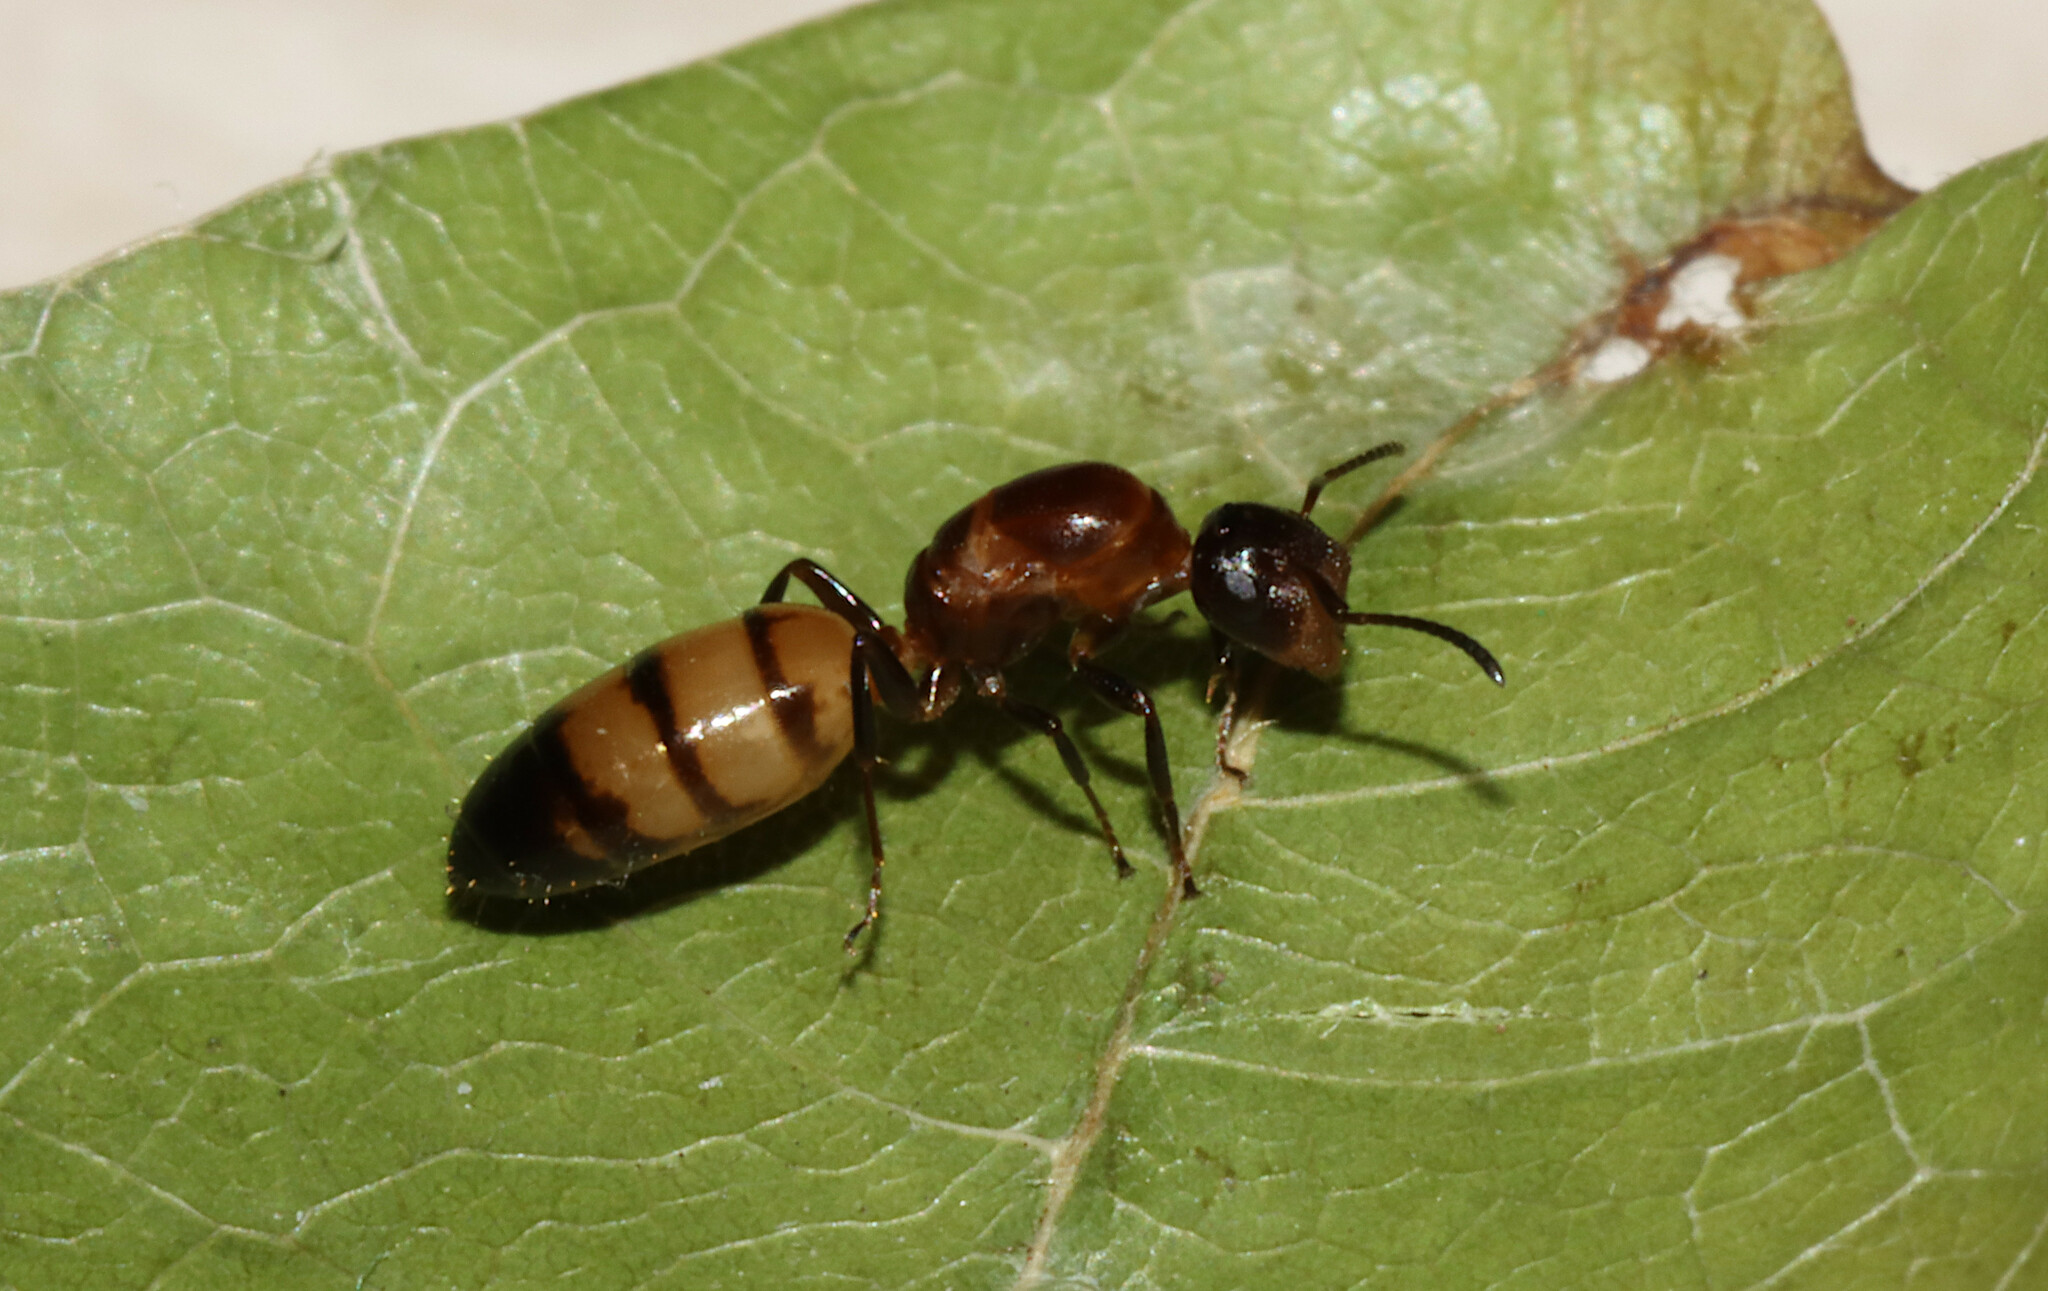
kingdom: Animalia
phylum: Arthropoda
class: Insecta
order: Hymenoptera
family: Formicidae
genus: Colobopsis
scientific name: Colobopsis impressa
